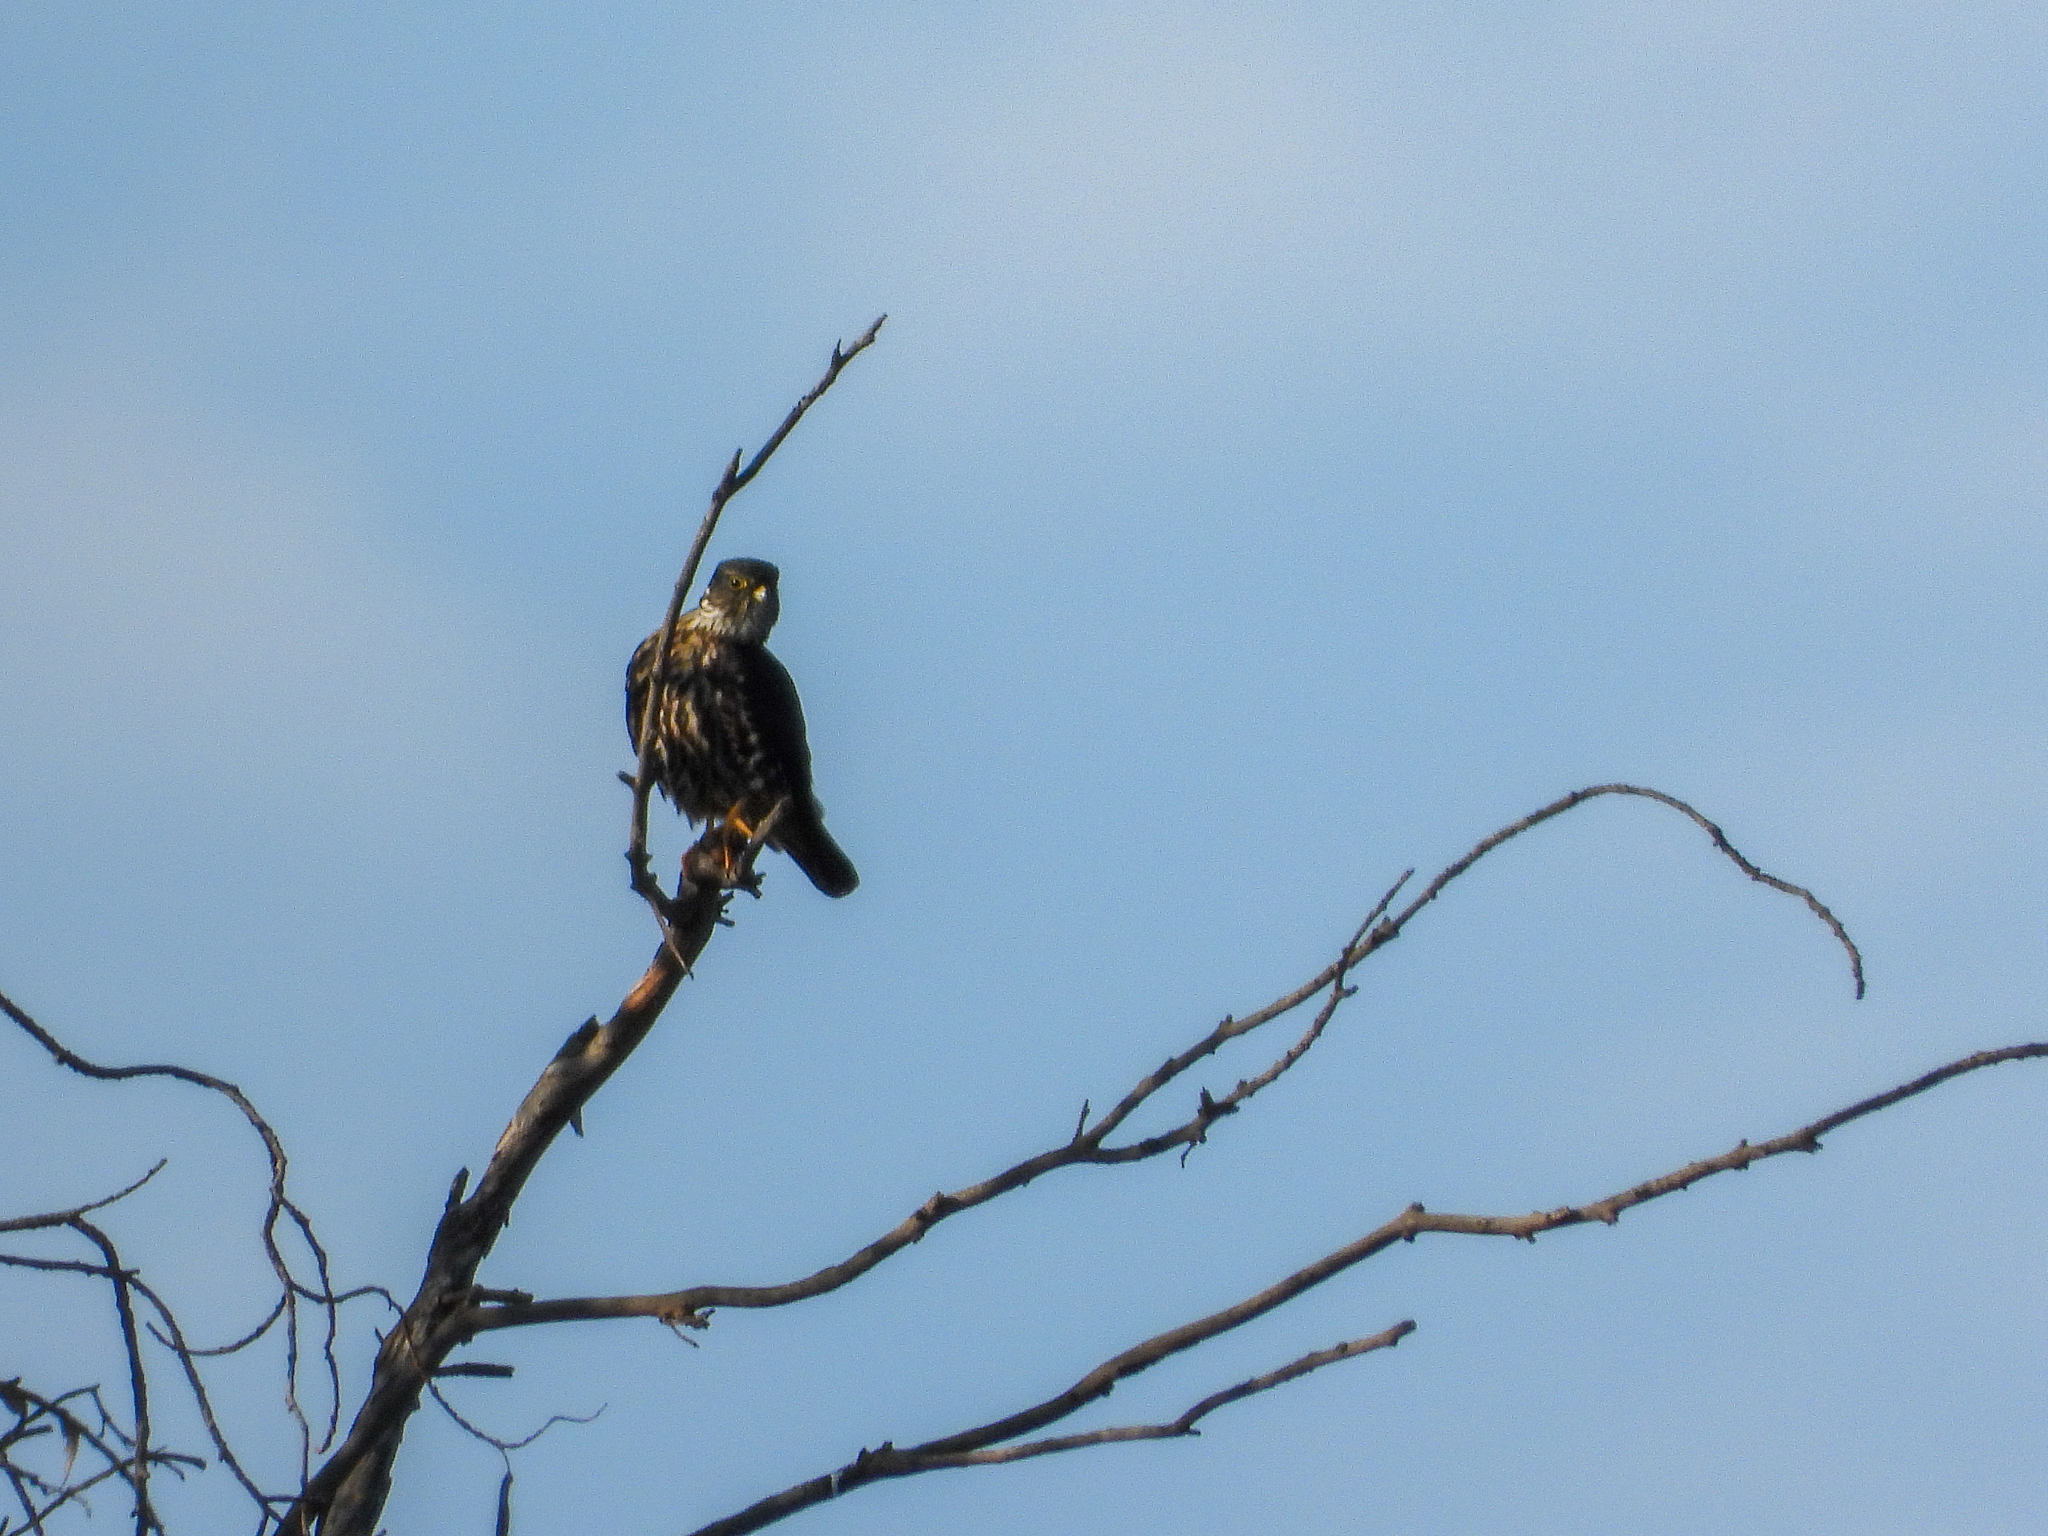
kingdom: Animalia
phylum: Chordata
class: Aves
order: Falconiformes
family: Falconidae
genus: Falco
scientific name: Falco columbarius
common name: Merlin
